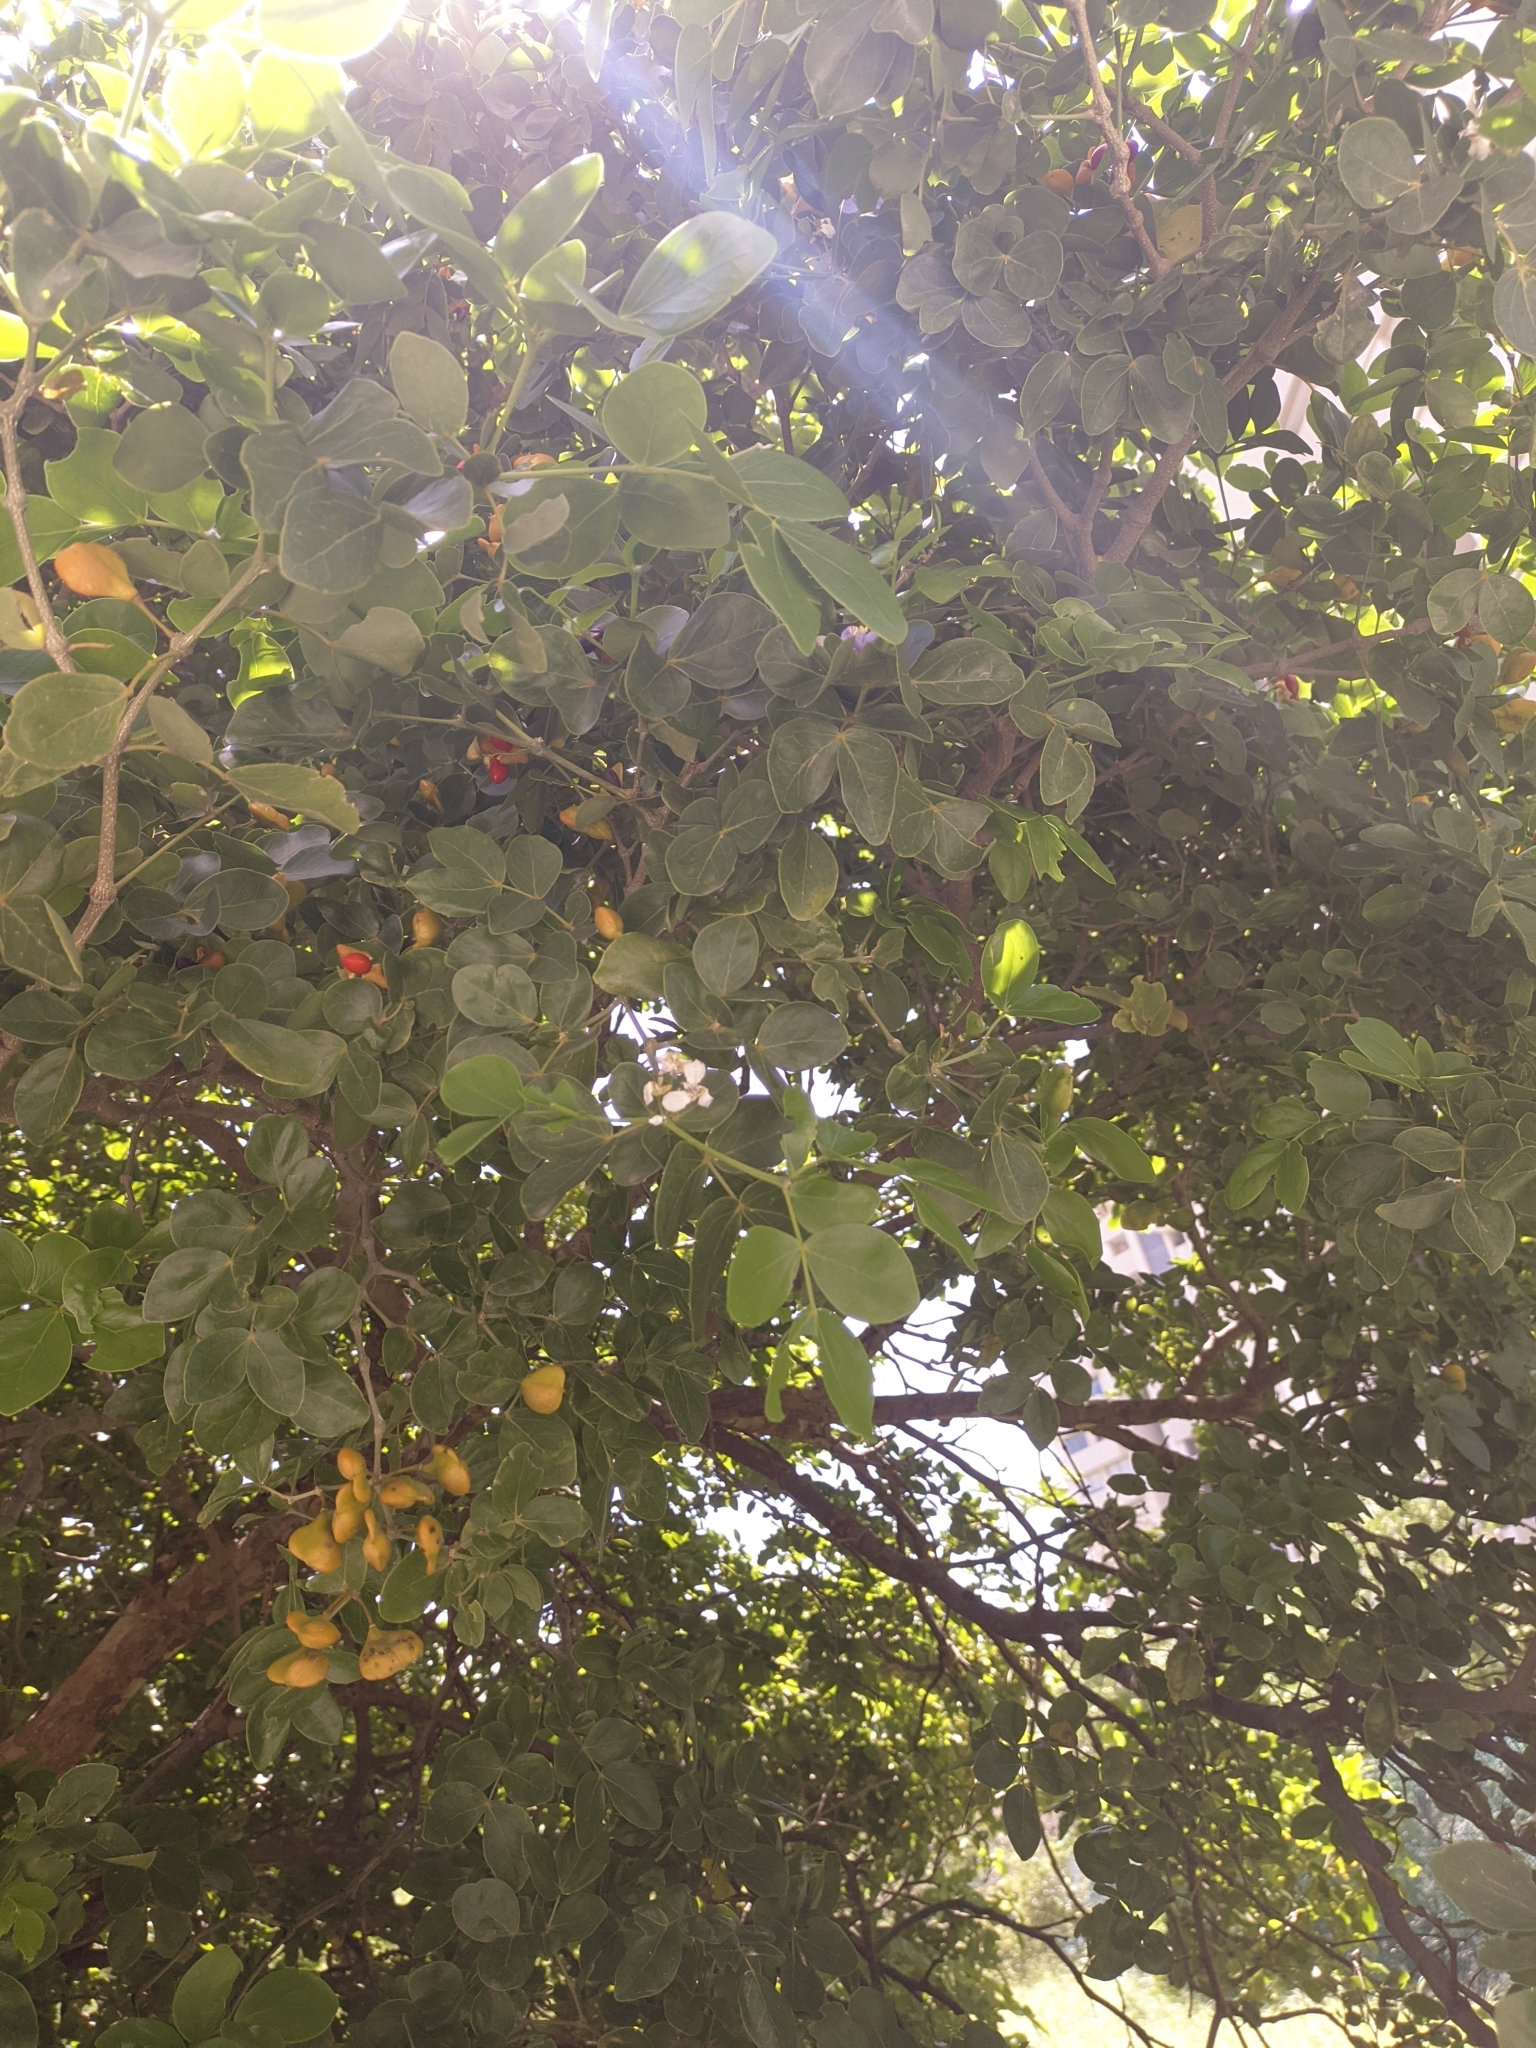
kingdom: Plantae
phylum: Tracheophyta
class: Magnoliopsida
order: Zygophyllales
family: Zygophyllaceae
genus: Guaiacum
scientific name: Guaiacum officinale
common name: Lignum vitae
